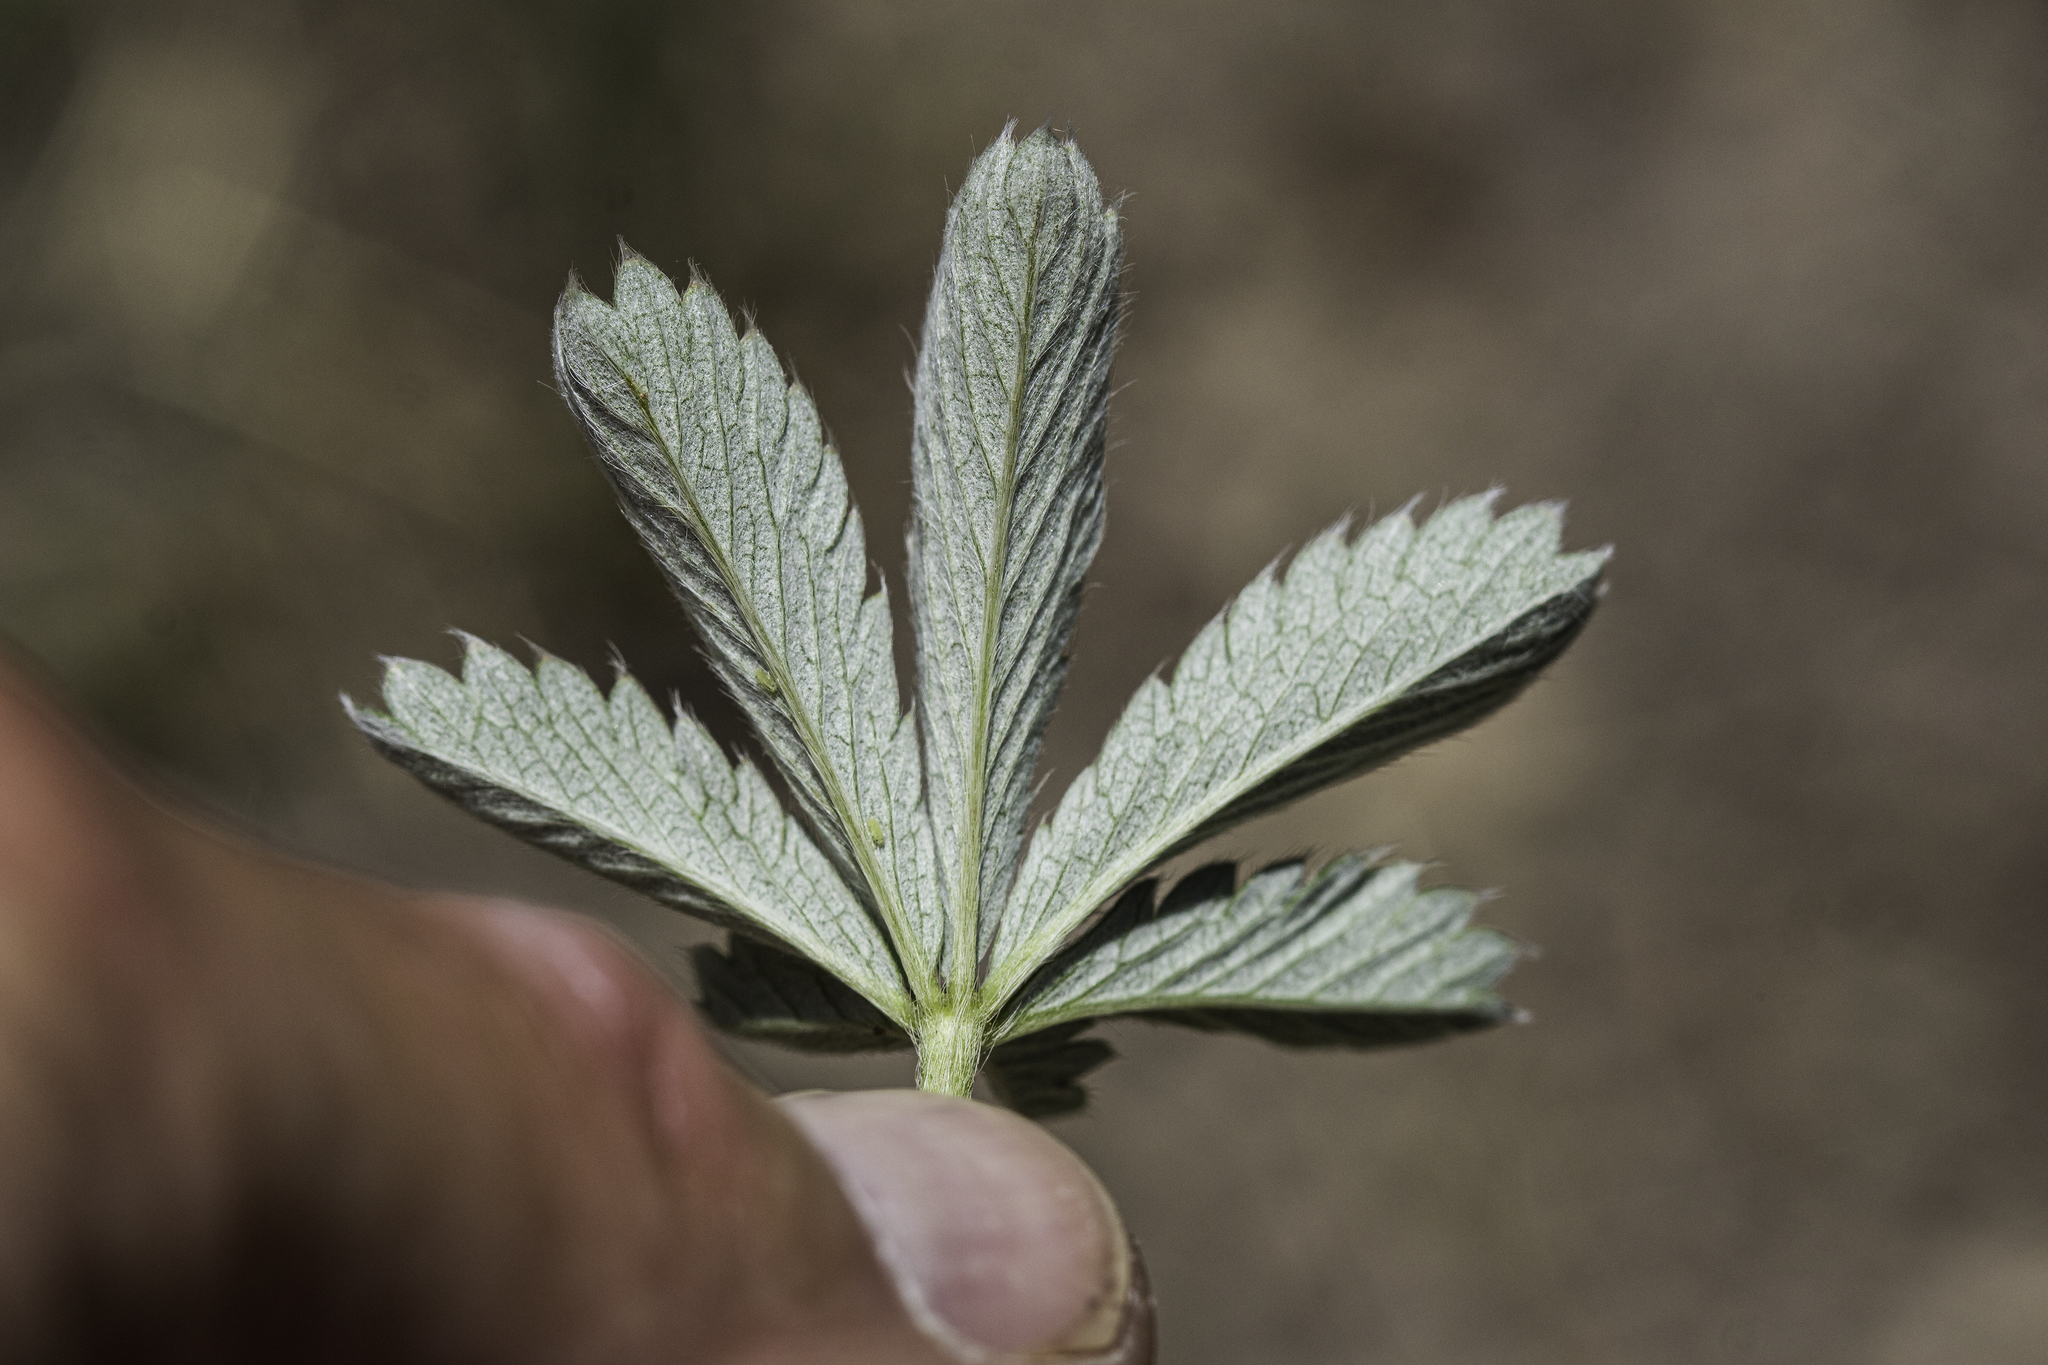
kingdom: Plantae
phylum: Tracheophyta
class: Magnoliopsida
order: Rosales
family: Rosaceae
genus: Potentilla
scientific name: Potentilla pulcherrima
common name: Beautiful cinquefoil
